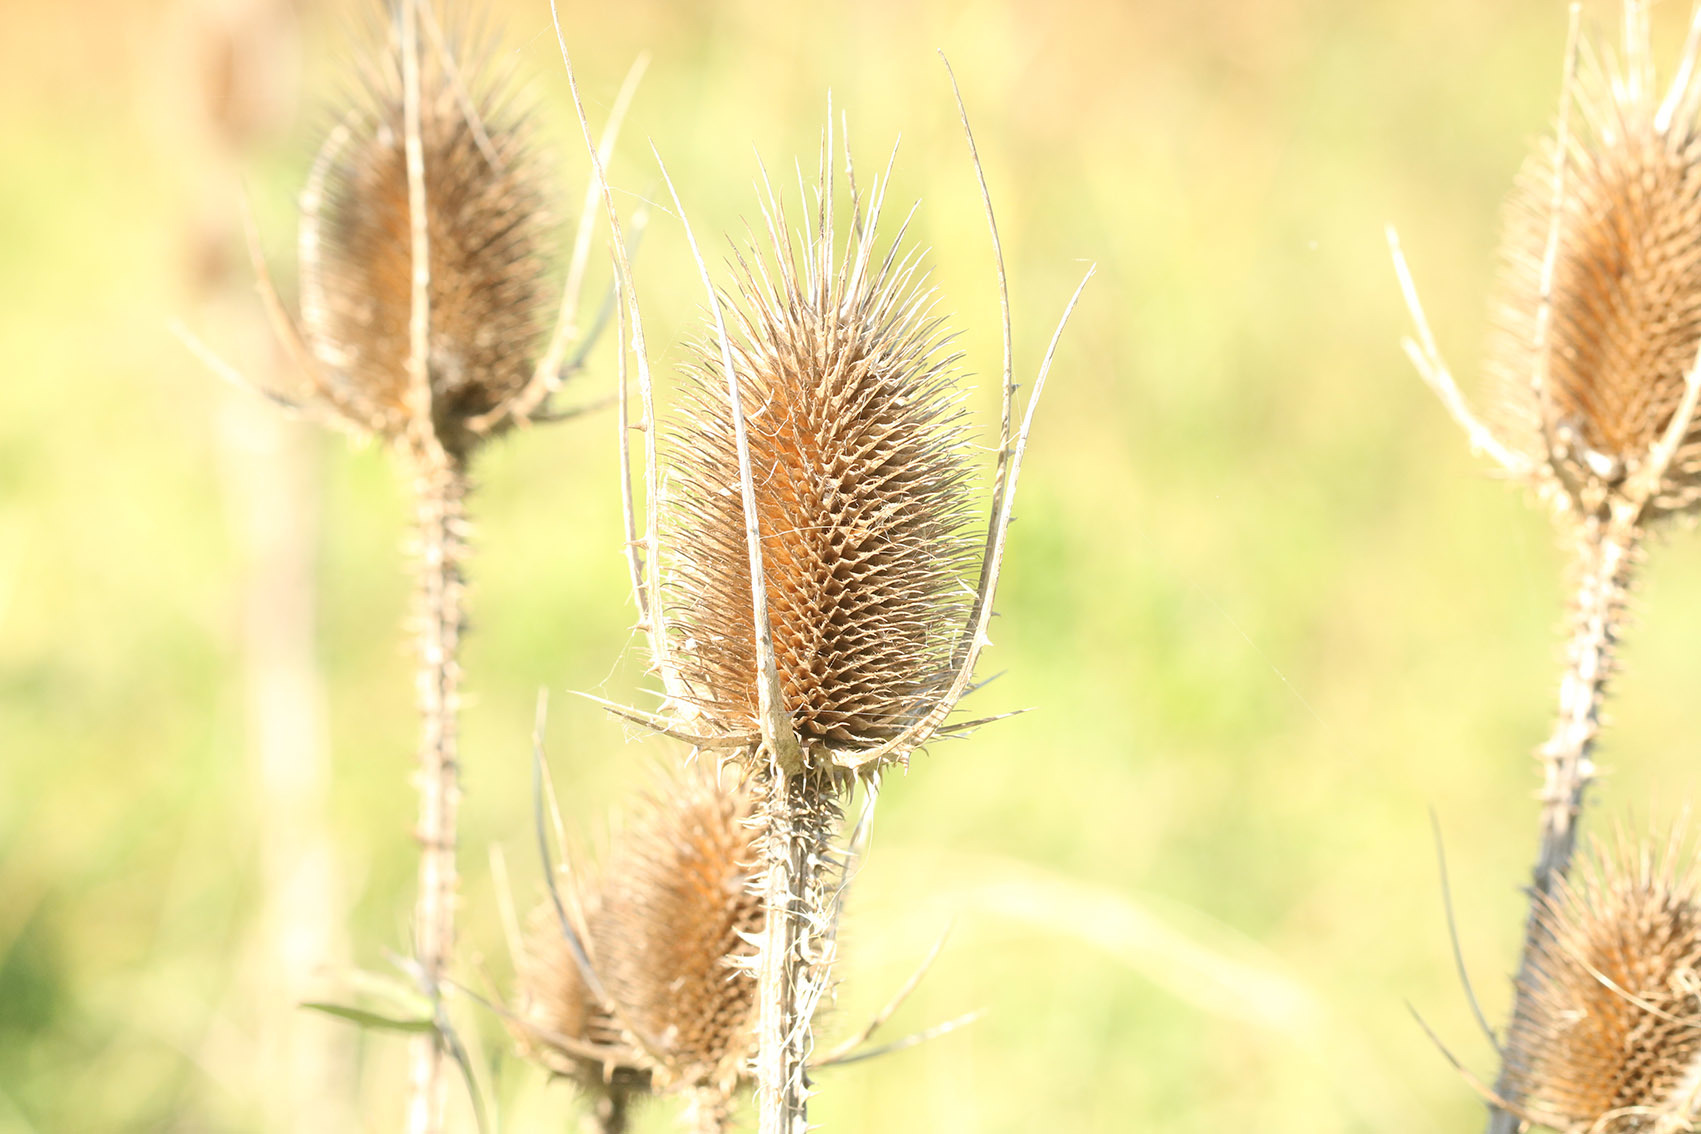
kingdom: Plantae
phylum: Tracheophyta
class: Magnoliopsida
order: Dipsacales
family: Caprifoliaceae
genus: Dipsacus
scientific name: Dipsacus fullonum
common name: Teasel
